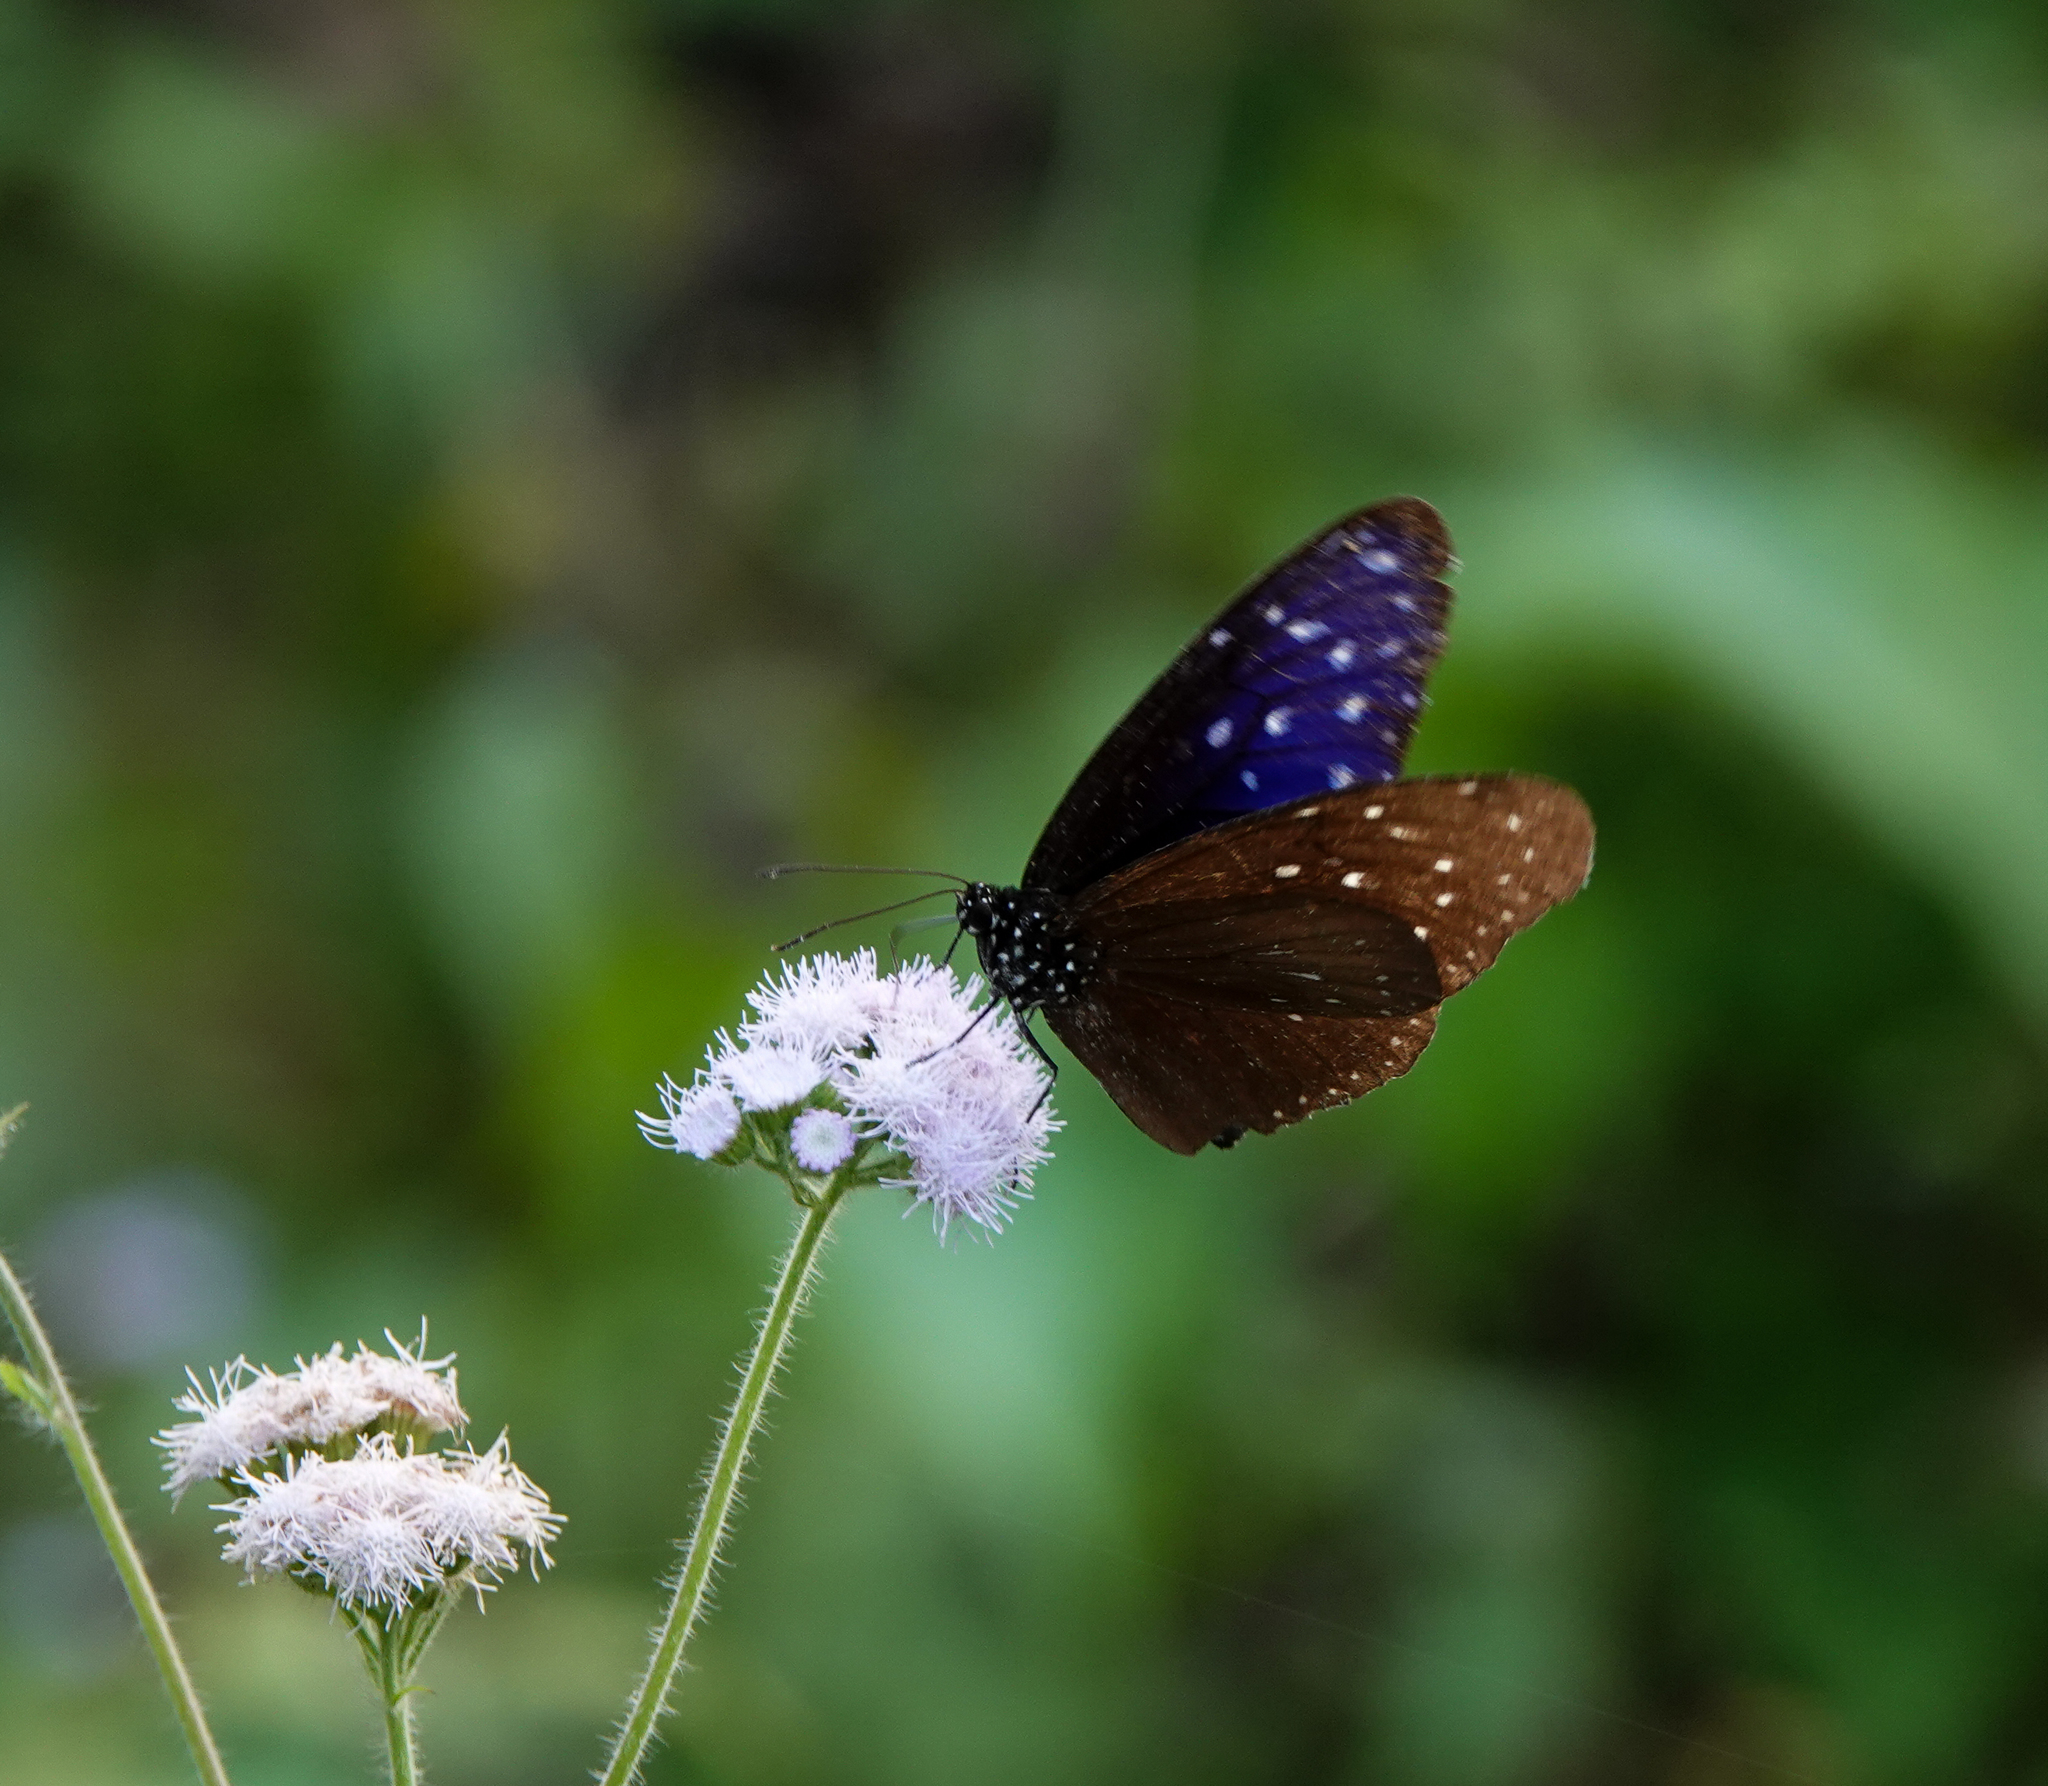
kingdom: Animalia
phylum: Arthropoda
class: Insecta
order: Lepidoptera
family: Nymphalidae
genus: Euploea
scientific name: Euploea mulciber
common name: Striped blue crow butterfly
